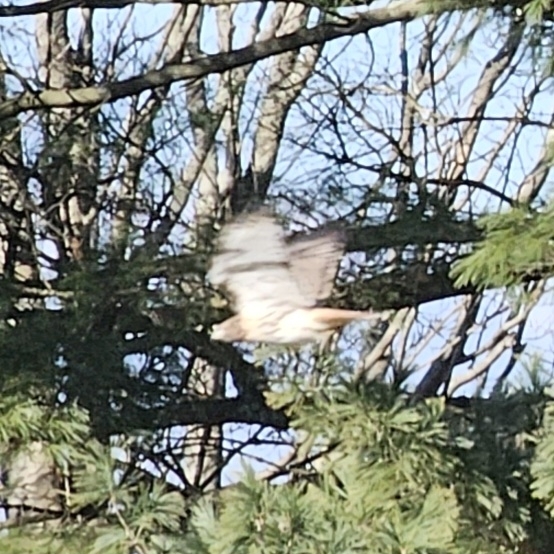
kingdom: Animalia
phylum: Chordata
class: Aves
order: Accipitriformes
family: Accipitridae
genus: Buteo
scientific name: Buteo jamaicensis
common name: Red-tailed hawk
